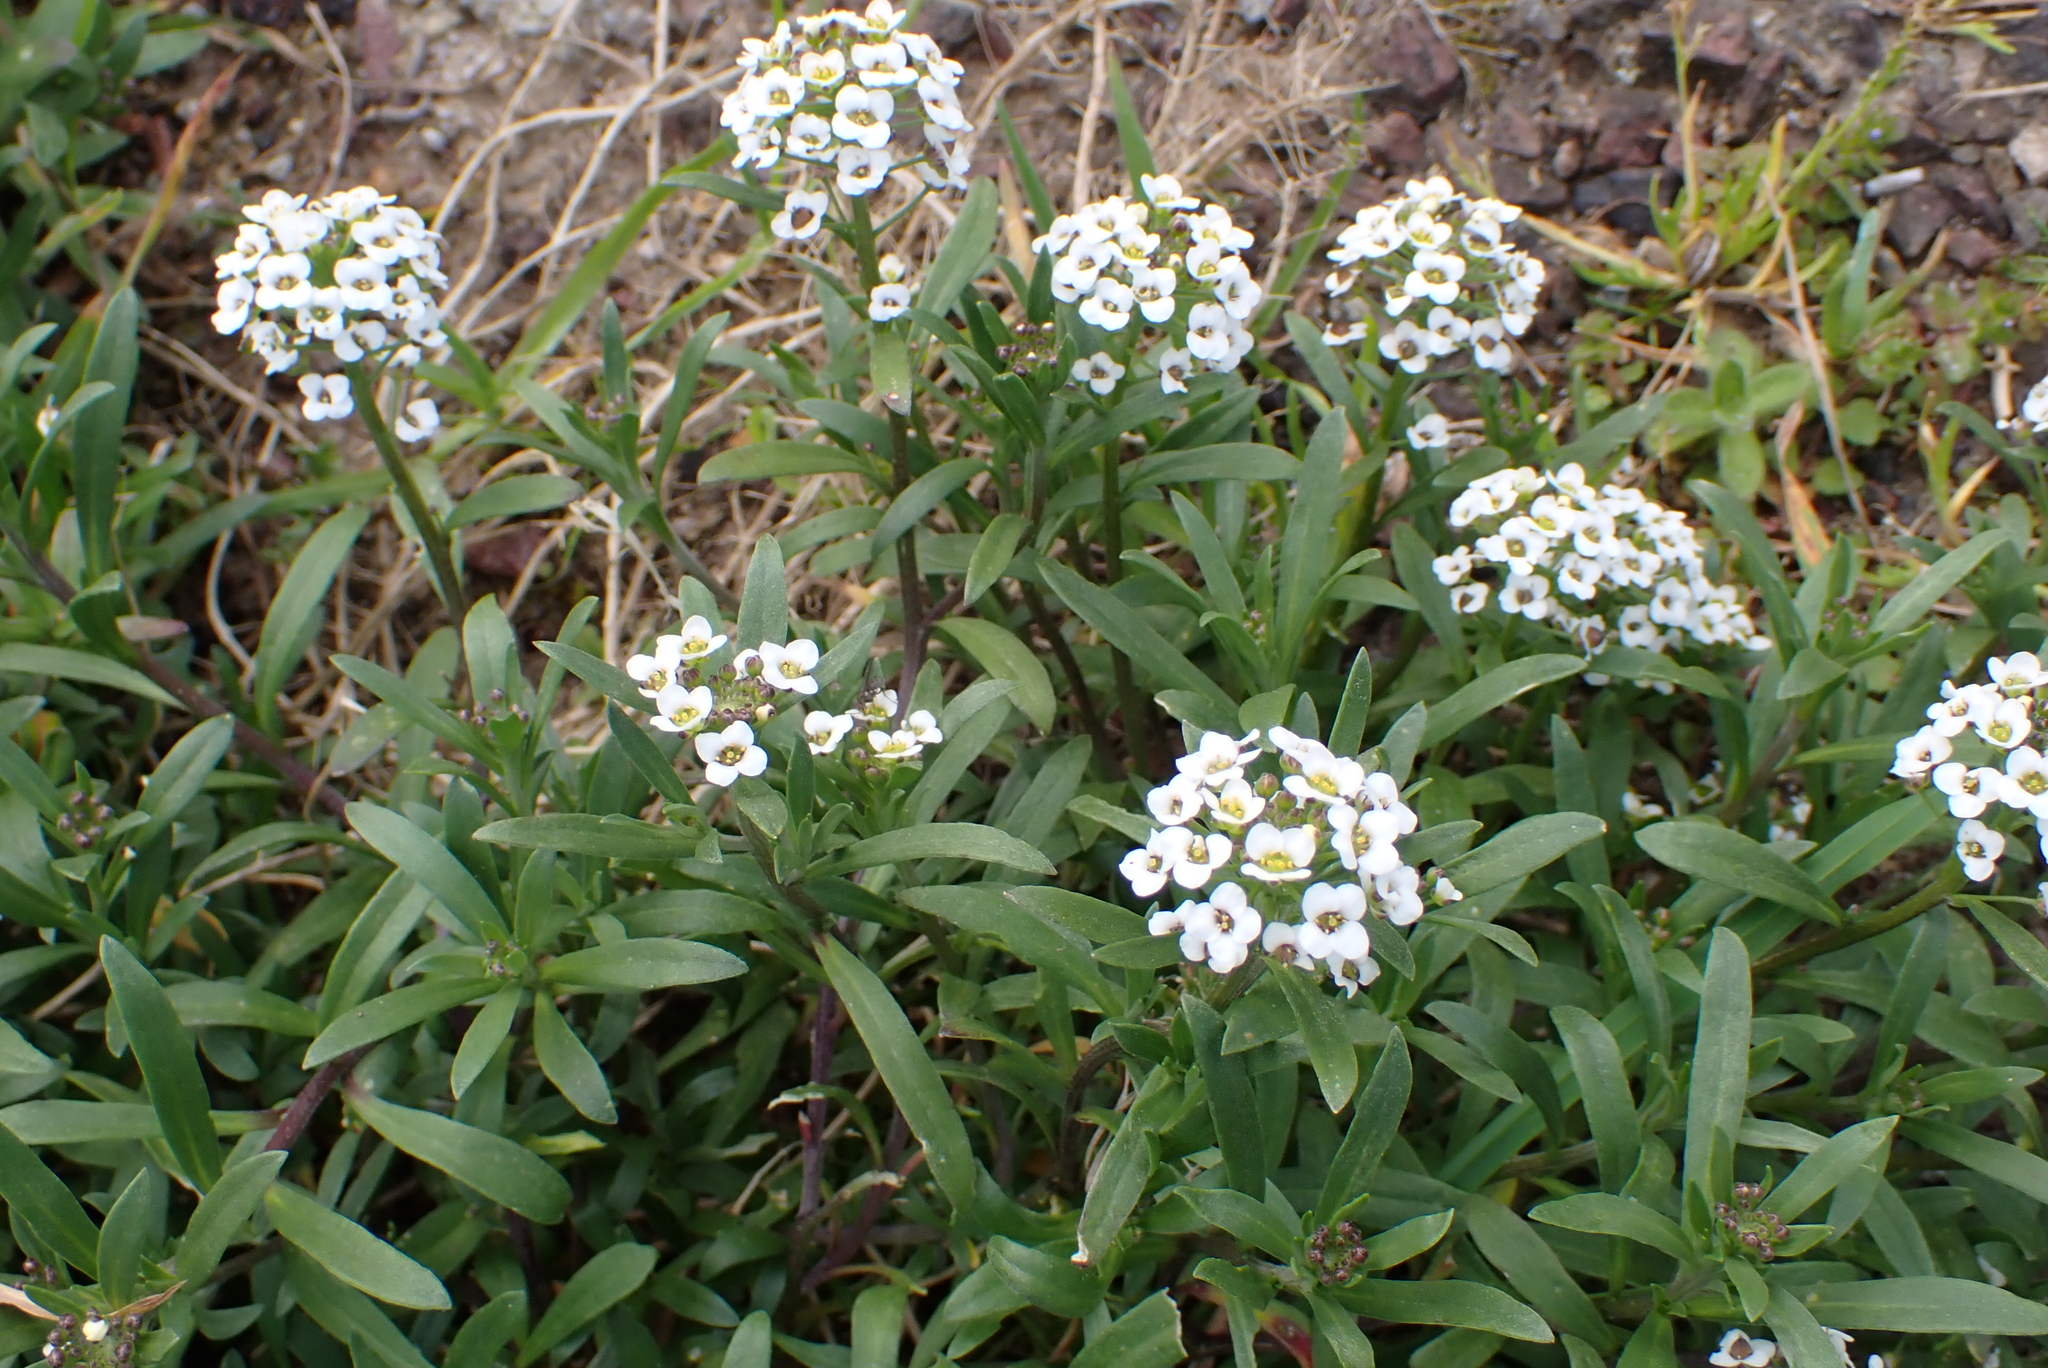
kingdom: Plantae
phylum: Tracheophyta
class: Magnoliopsida
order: Brassicales
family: Brassicaceae
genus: Lobularia
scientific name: Lobularia maritima
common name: Sweet alison
